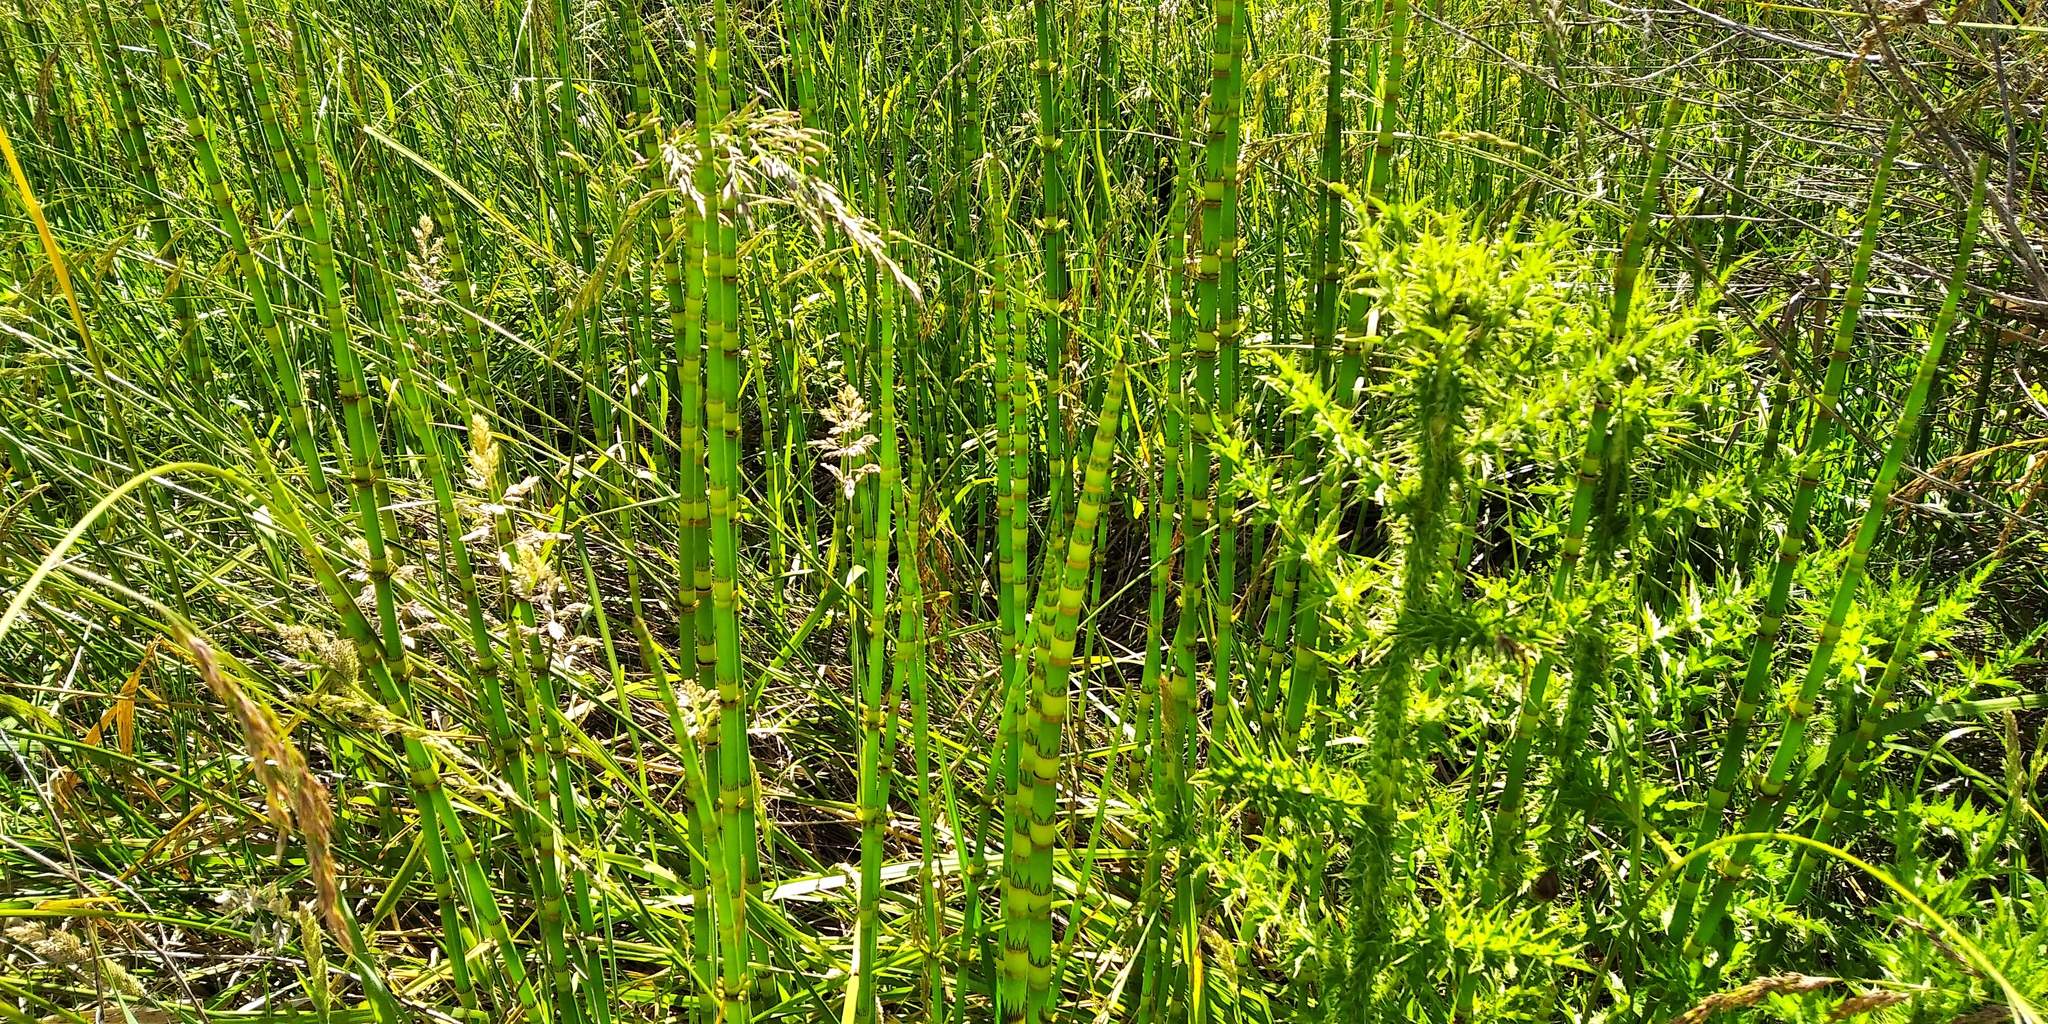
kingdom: Plantae
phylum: Tracheophyta
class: Polypodiopsida
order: Equisetales
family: Equisetaceae
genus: Equisetum
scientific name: Equisetum giganteum
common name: Giant horsetail
